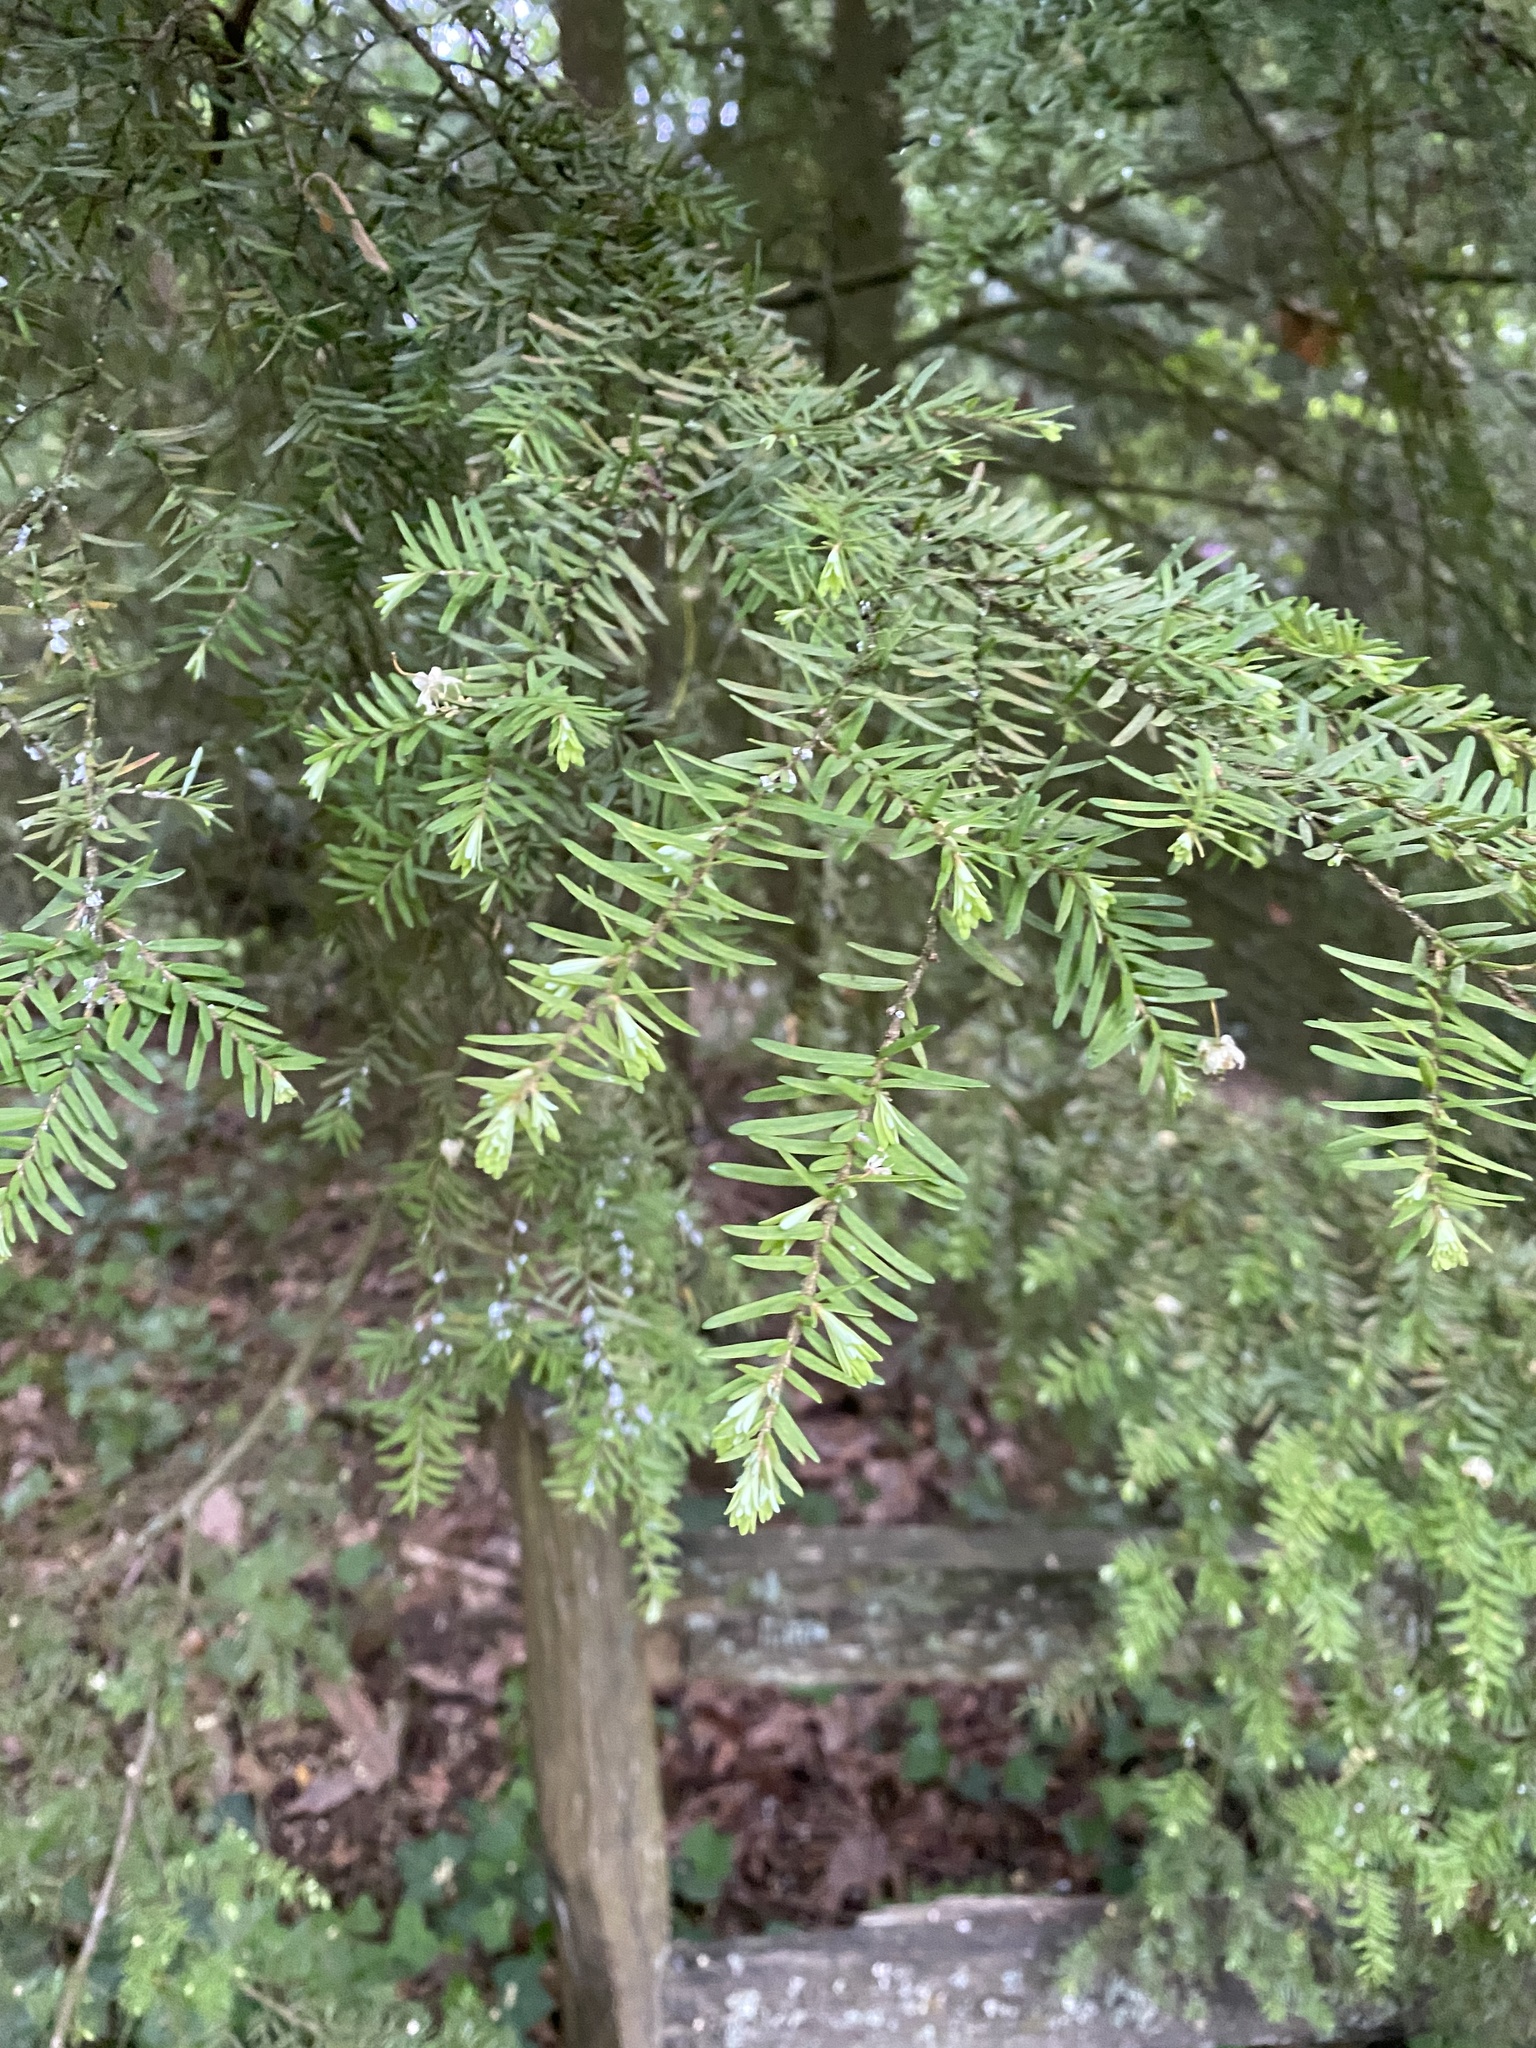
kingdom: Plantae
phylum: Tracheophyta
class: Pinopsida
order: Pinales
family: Pinaceae
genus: Tsuga
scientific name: Tsuga heterophylla
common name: Western hemlock
